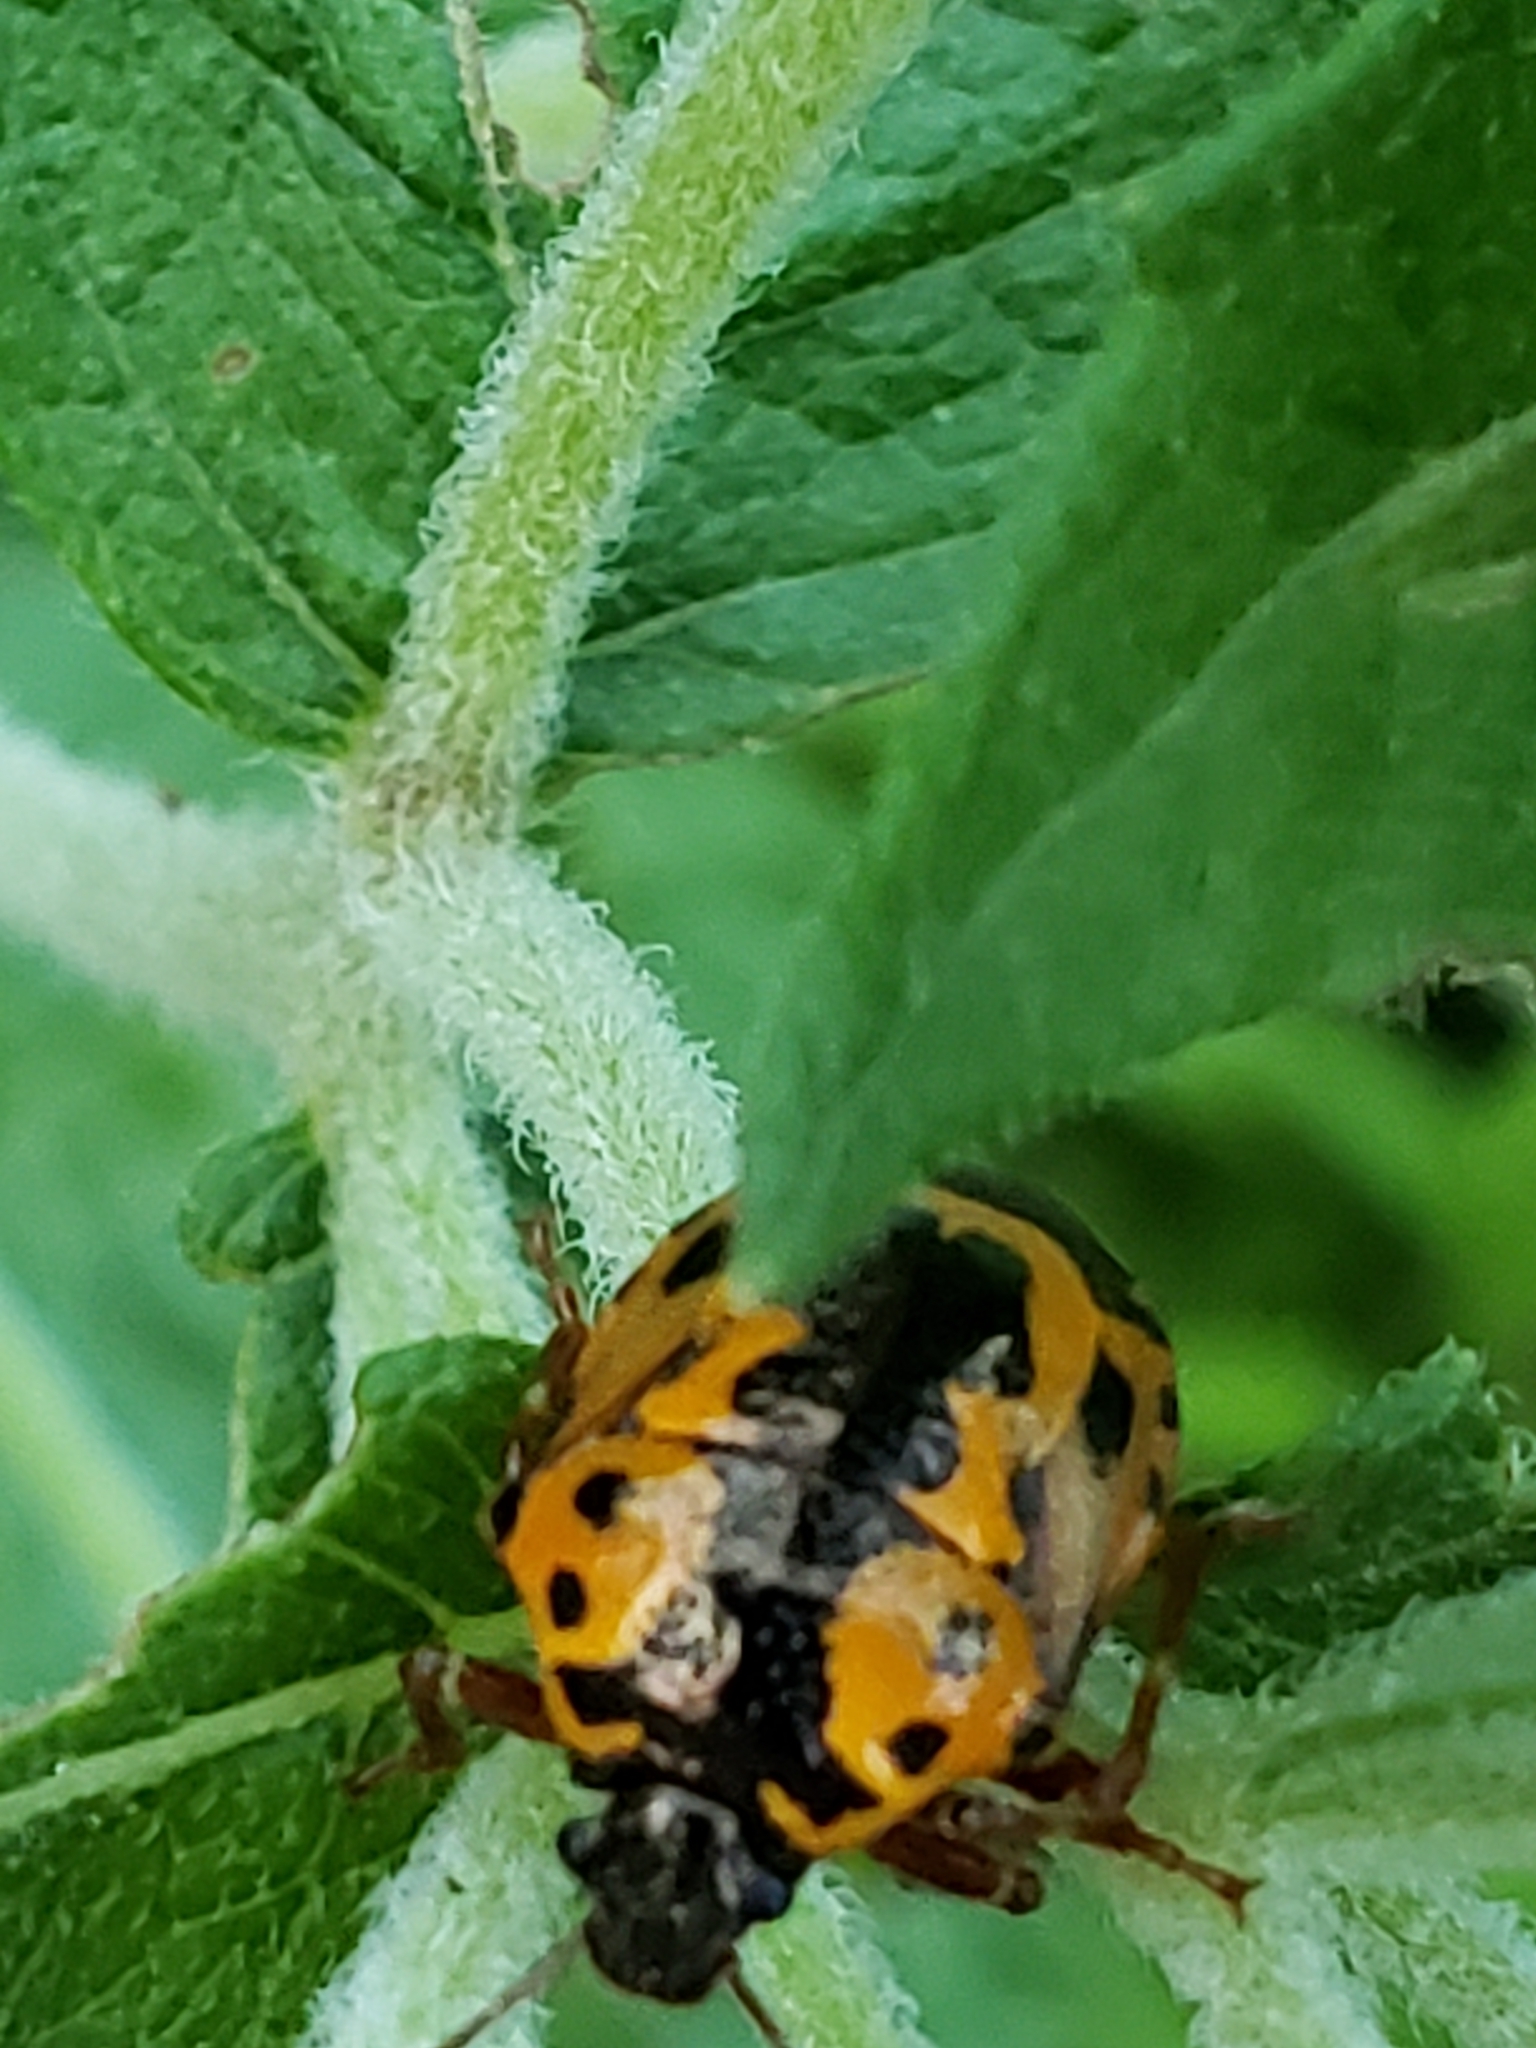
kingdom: Animalia
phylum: Arthropoda
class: Insecta
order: Hemiptera
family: Pentatomidae
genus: Stiretrus
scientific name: Stiretrus anchorago
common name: Anchor stink bug
